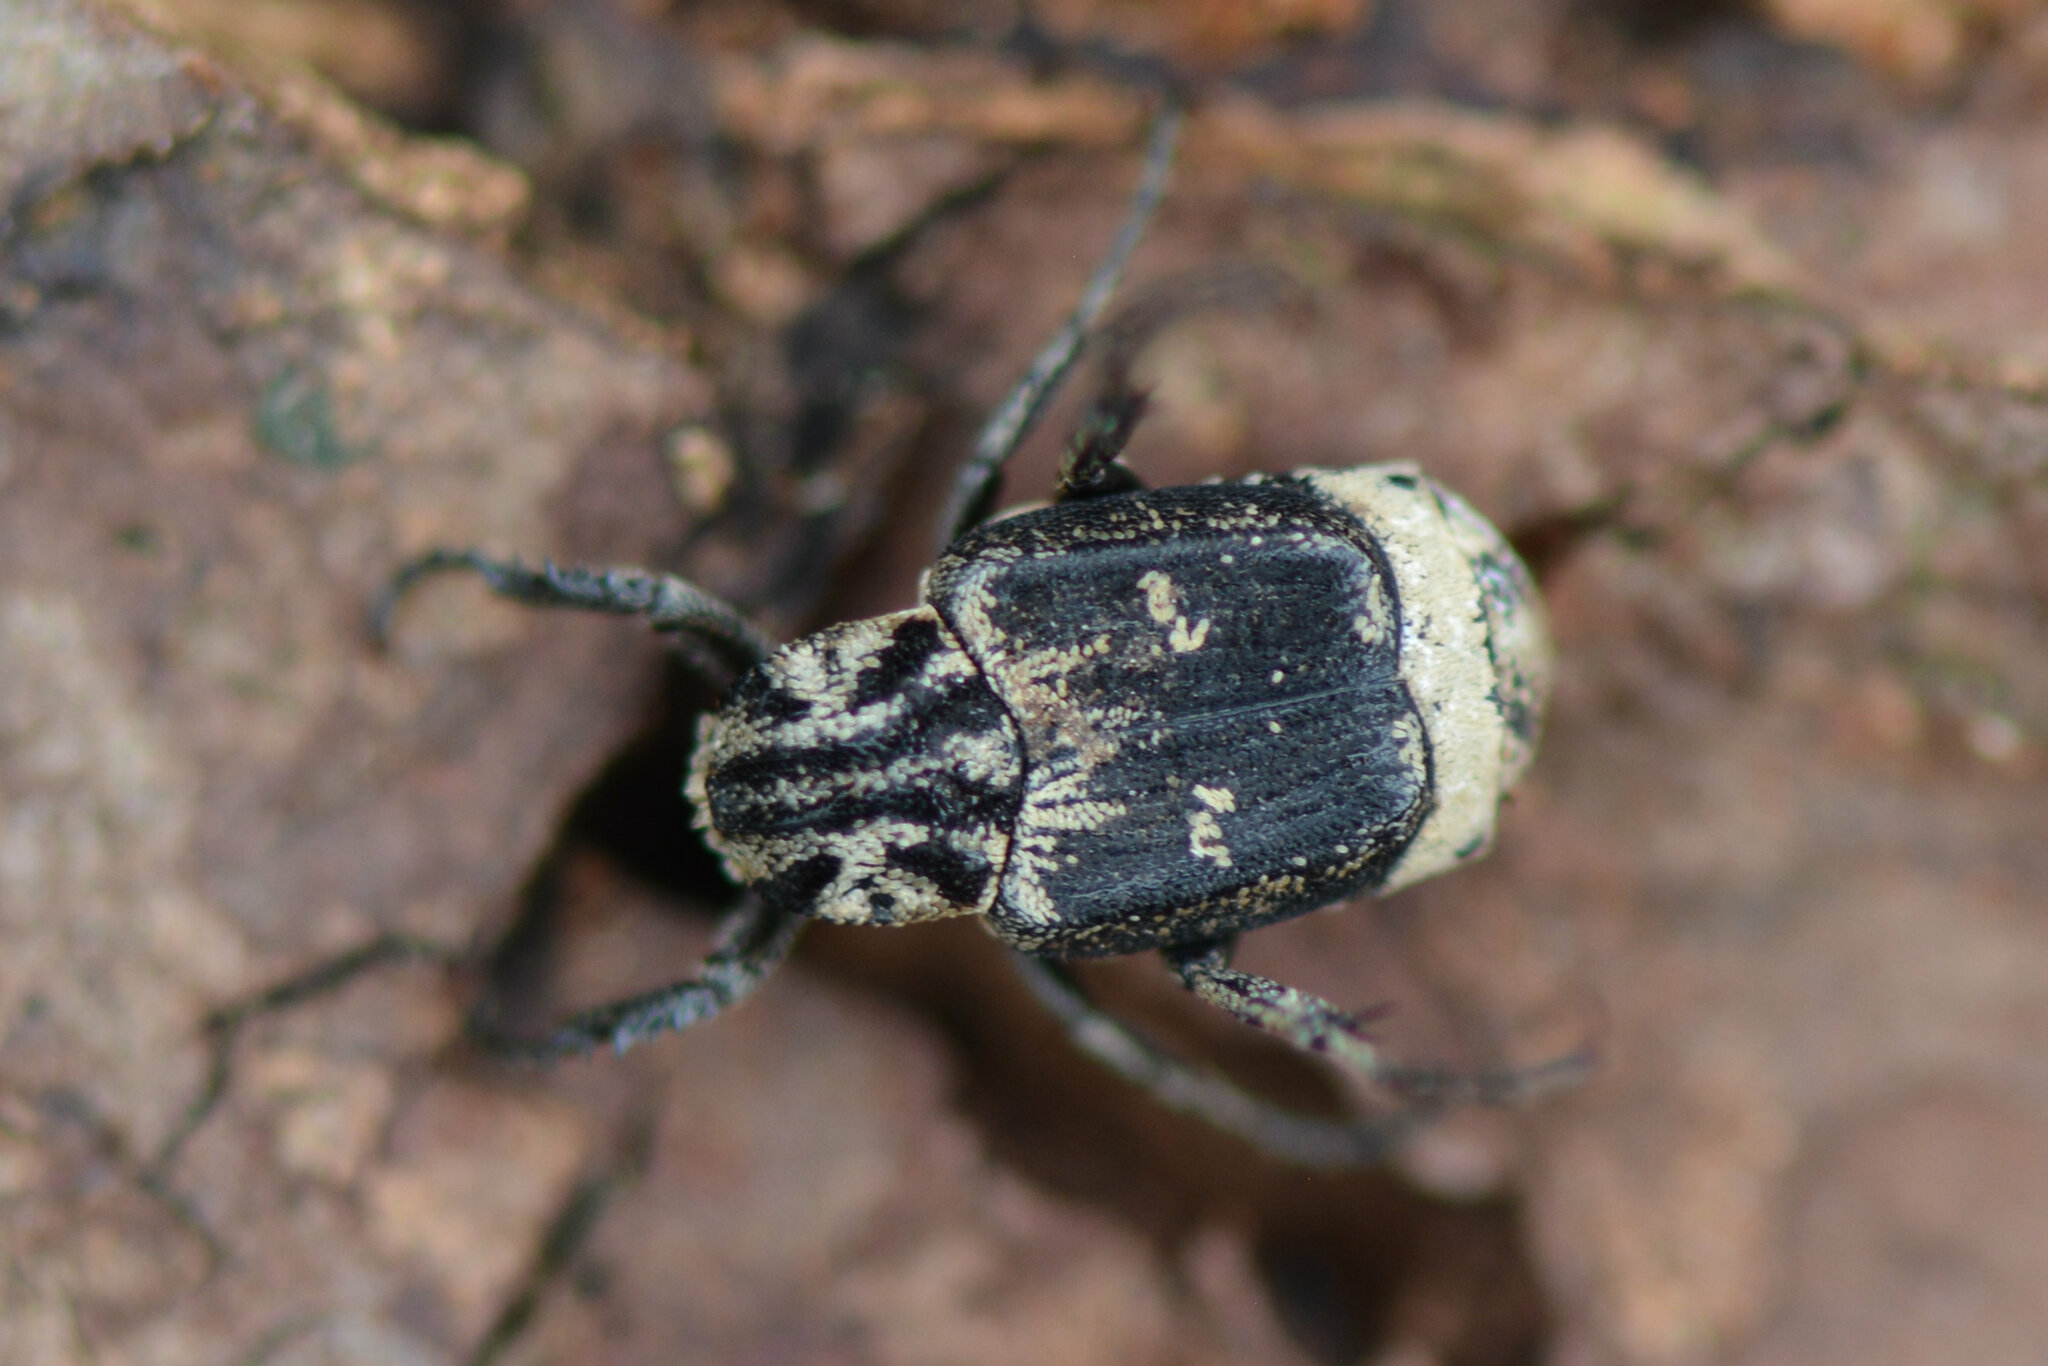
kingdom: Animalia
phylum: Arthropoda
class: Insecta
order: Coleoptera
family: Scarabaeidae
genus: Valgus
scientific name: Valgus hemipterus
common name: Bug flower chafer
